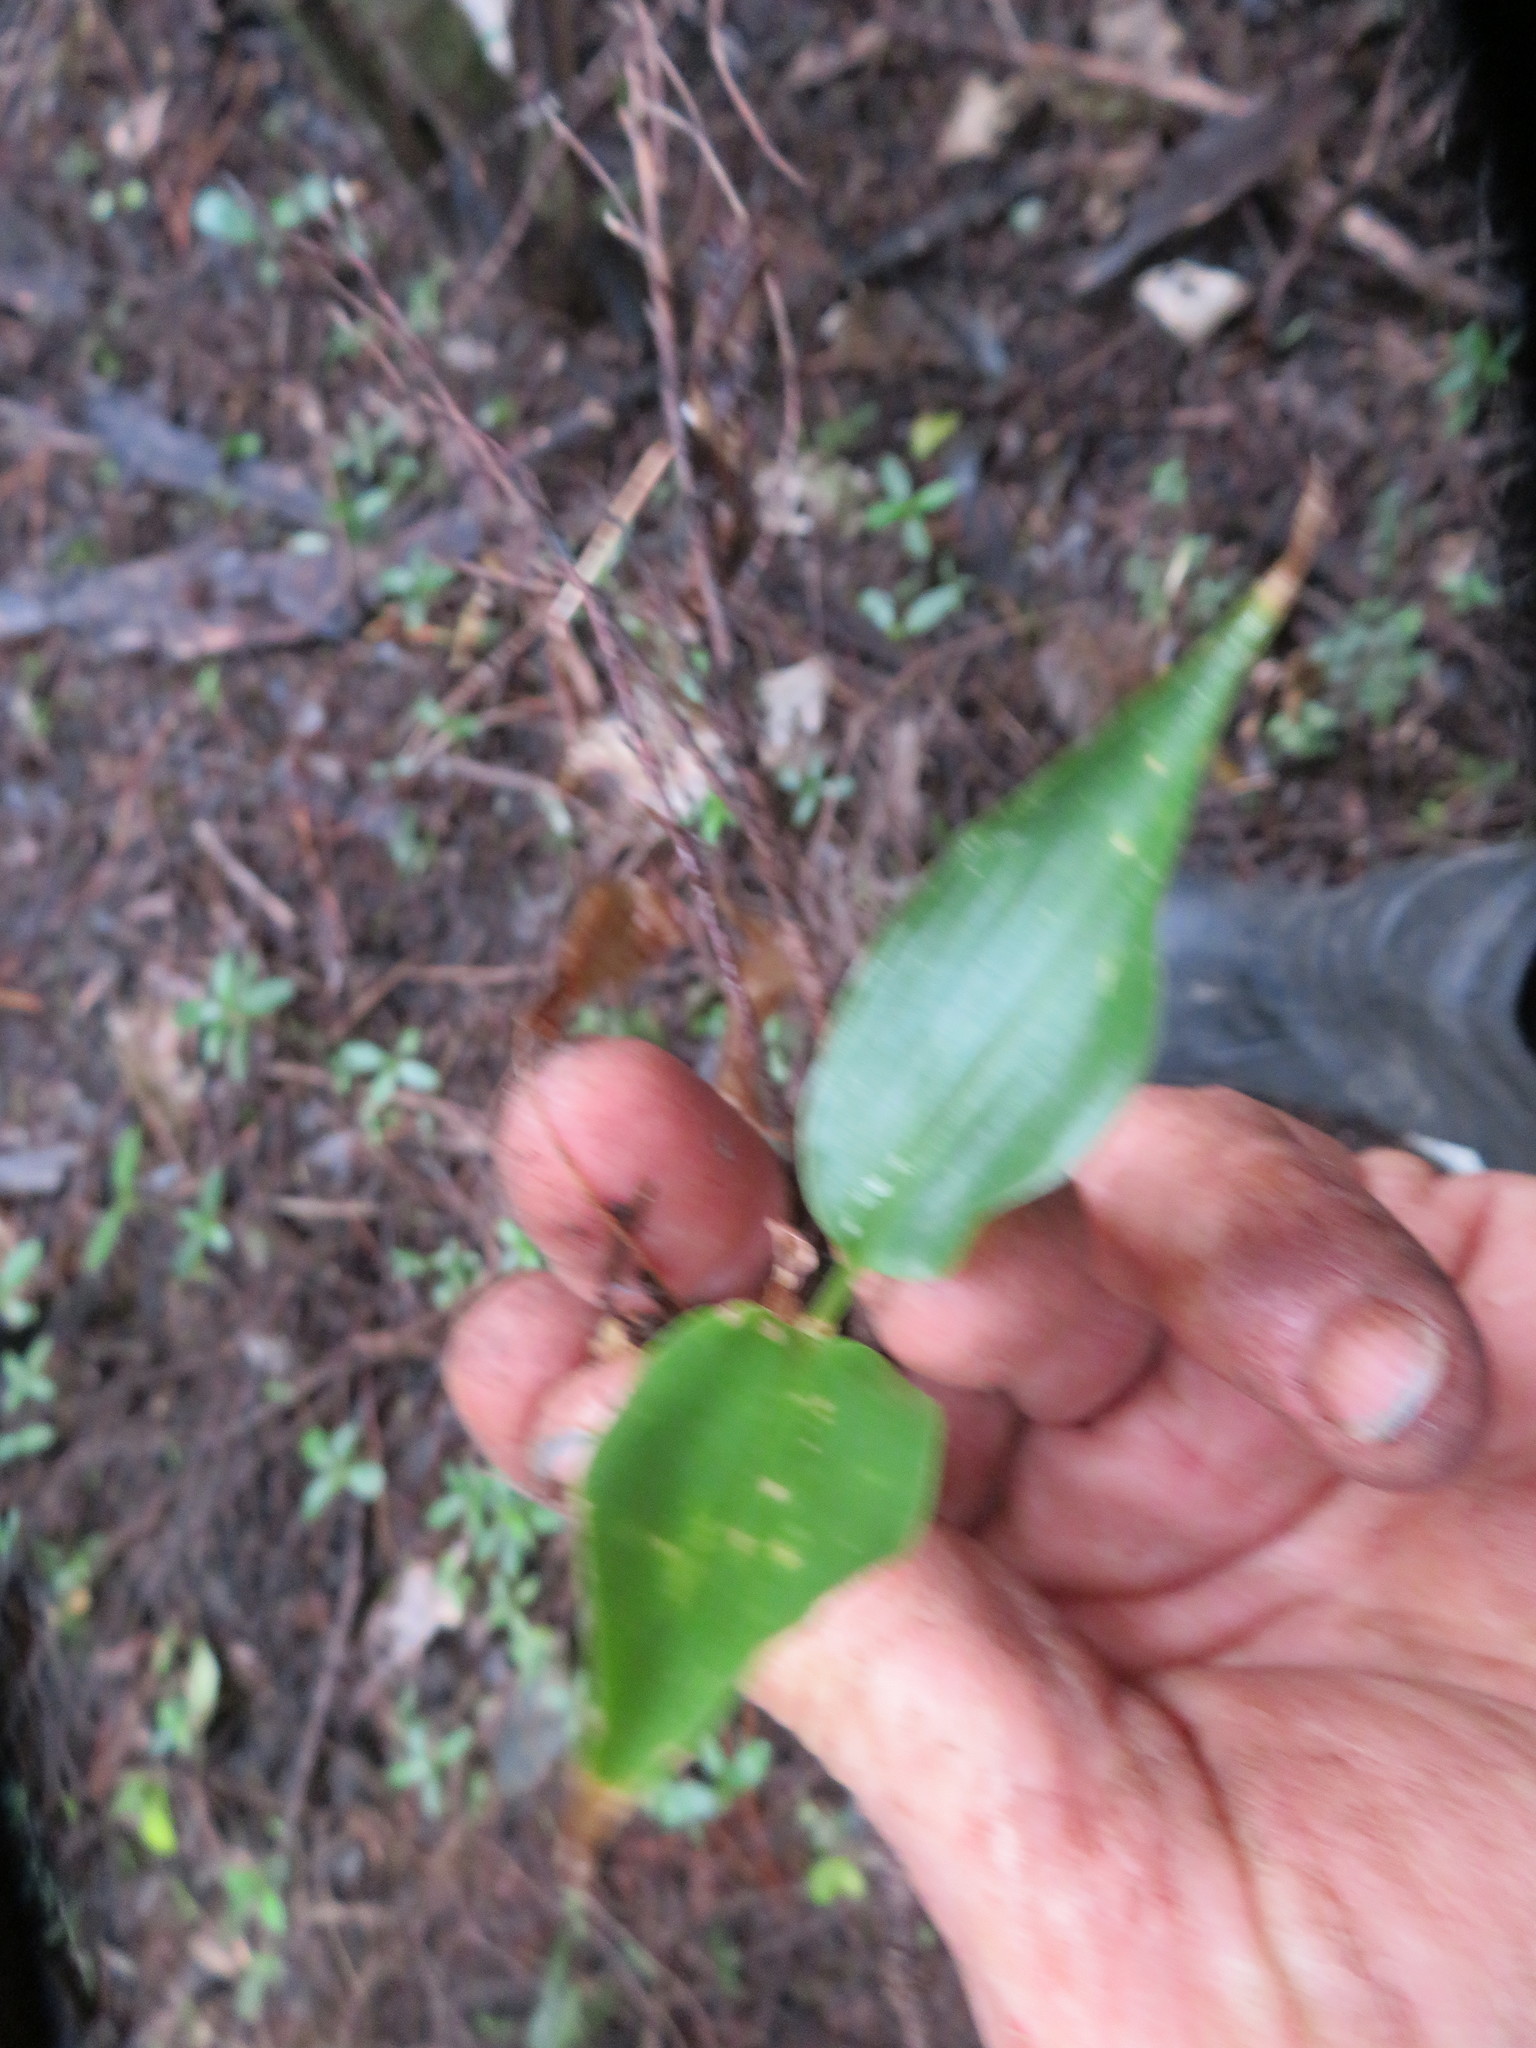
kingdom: Plantae
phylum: Tracheophyta
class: Liliopsida
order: Zingiberales
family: Zingiberaceae
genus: Hedychium
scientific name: Hedychium gardnerianum
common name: Himalayan ginger
